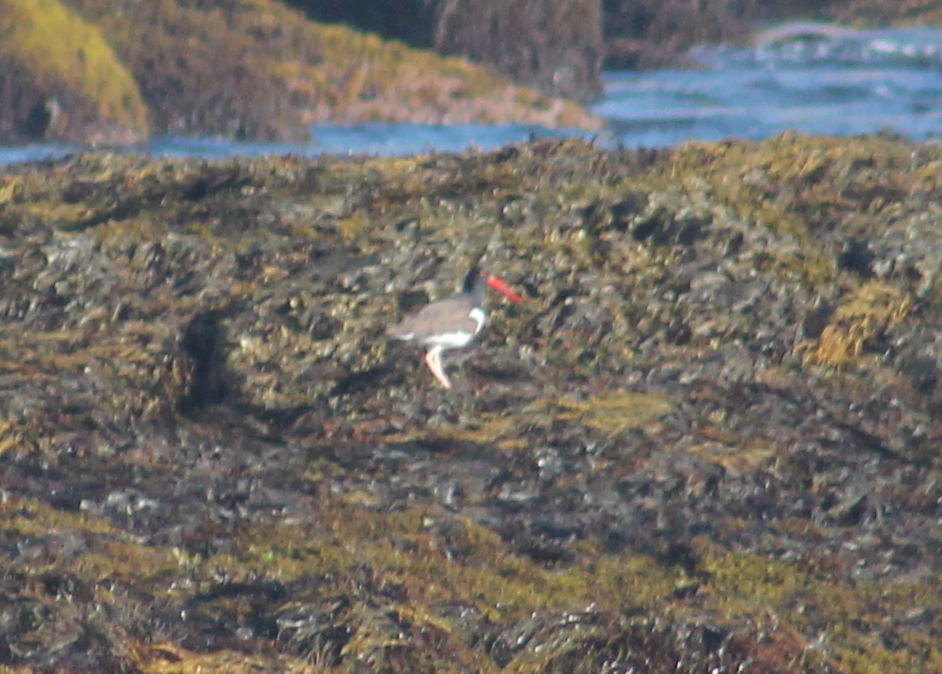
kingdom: Animalia
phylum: Chordata
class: Aves
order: Charadriiformes
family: Haematopodidae
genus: Haematopus
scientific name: Haematopus palliatus
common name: American oystercatcher
